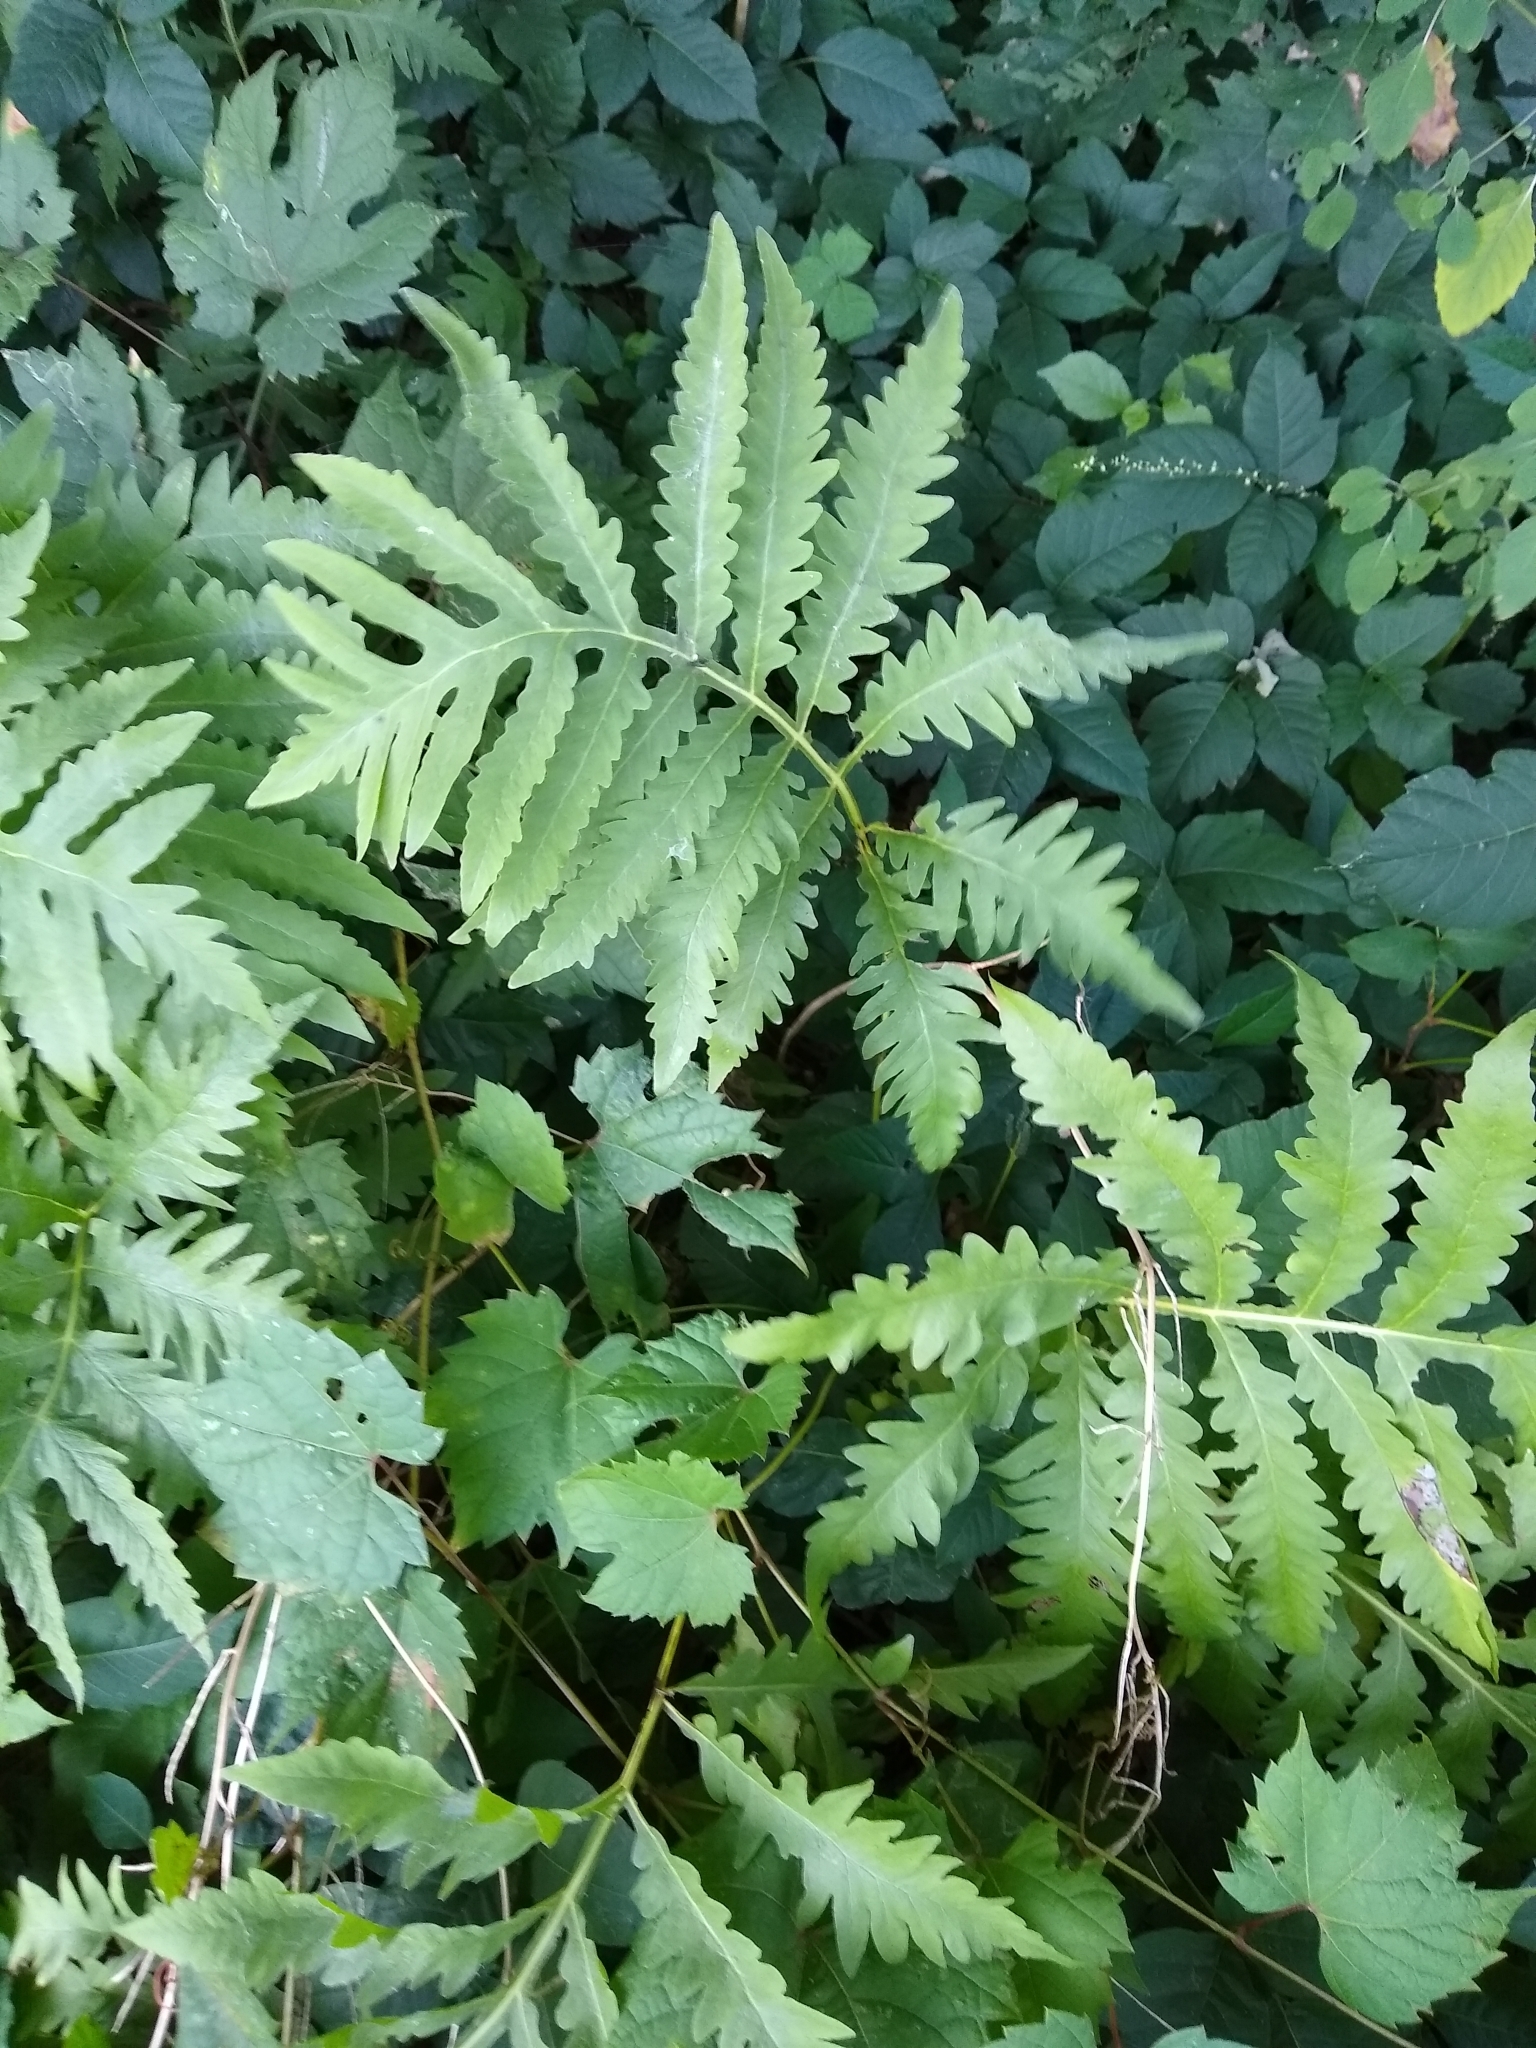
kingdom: Plantae
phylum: Tracheophyta
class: Polypodiopsida
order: Polypodiales
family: Onocleaceae
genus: Onoclea
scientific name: Onoclea sensibilis
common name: Sensitive fern
